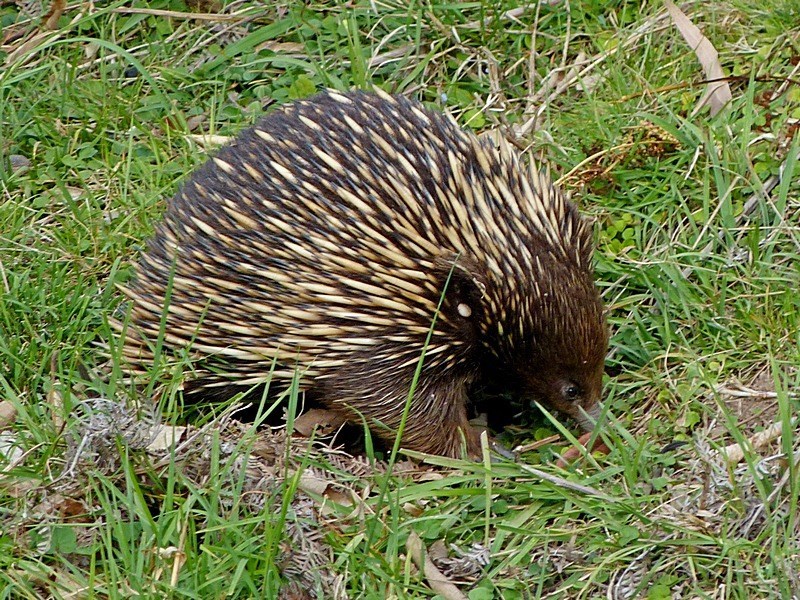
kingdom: Animalia
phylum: Chordata
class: Mammalia
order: Monotremata
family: Tachyglossidae
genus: Tachyglossus
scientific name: Tachyglossus aculeatus
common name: Short-beaked echidna
